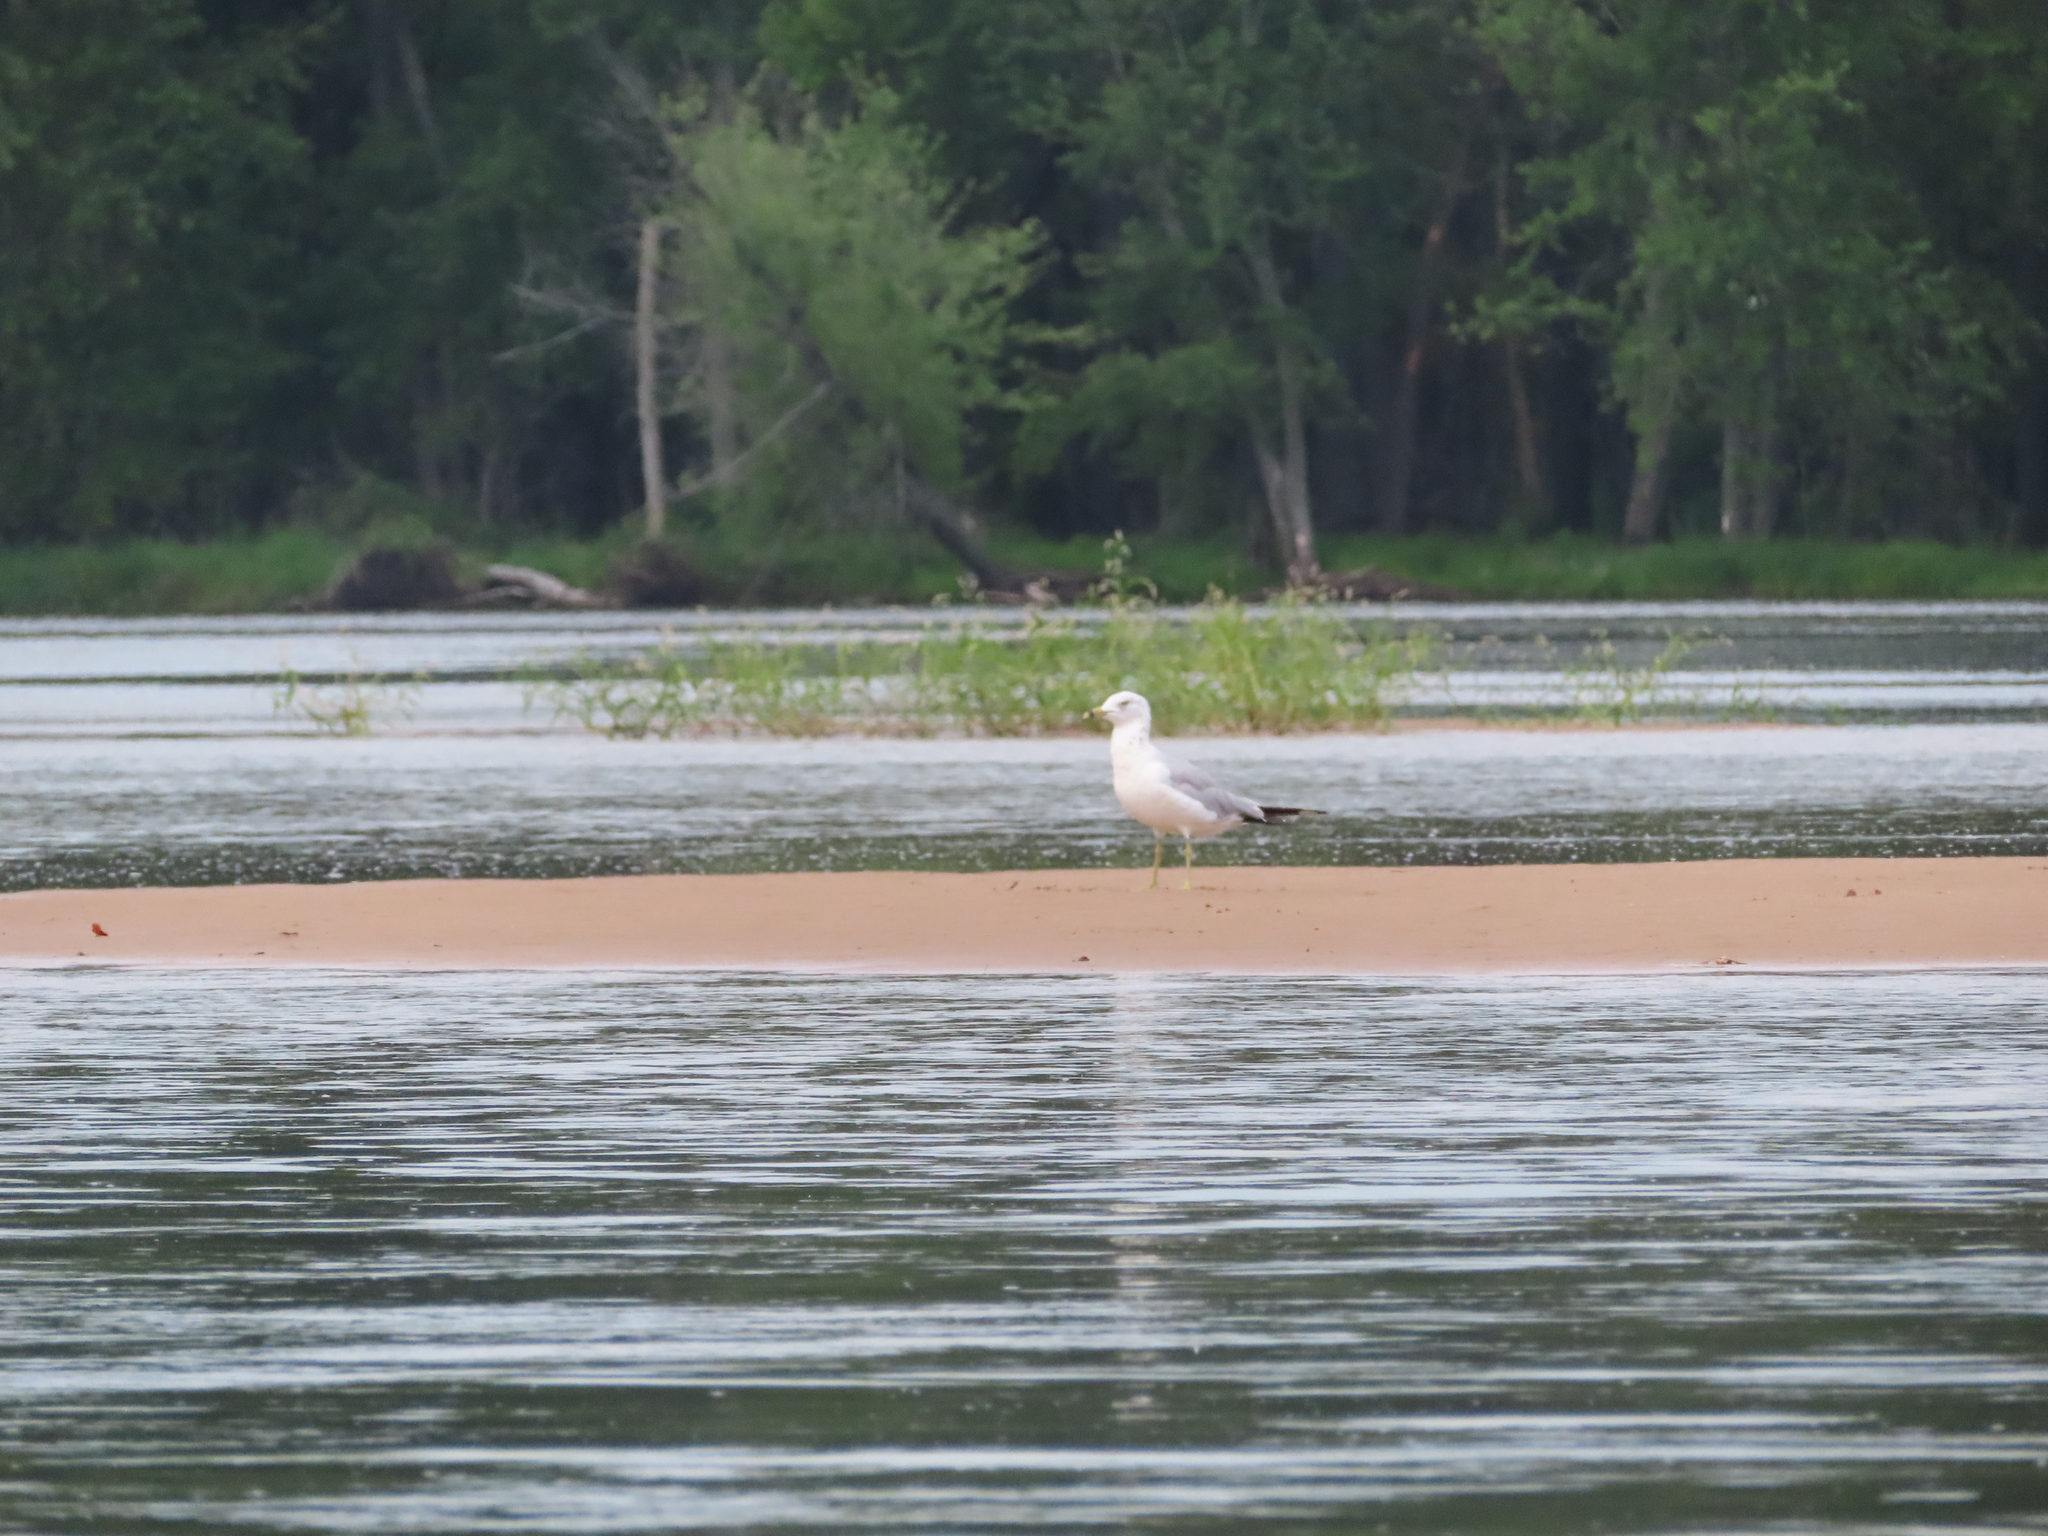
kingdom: Animalia
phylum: Chordata
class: Aves
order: Charadriiformes
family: Laridae
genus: Larus
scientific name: Larus delawarensis
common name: Ring-billed gull
